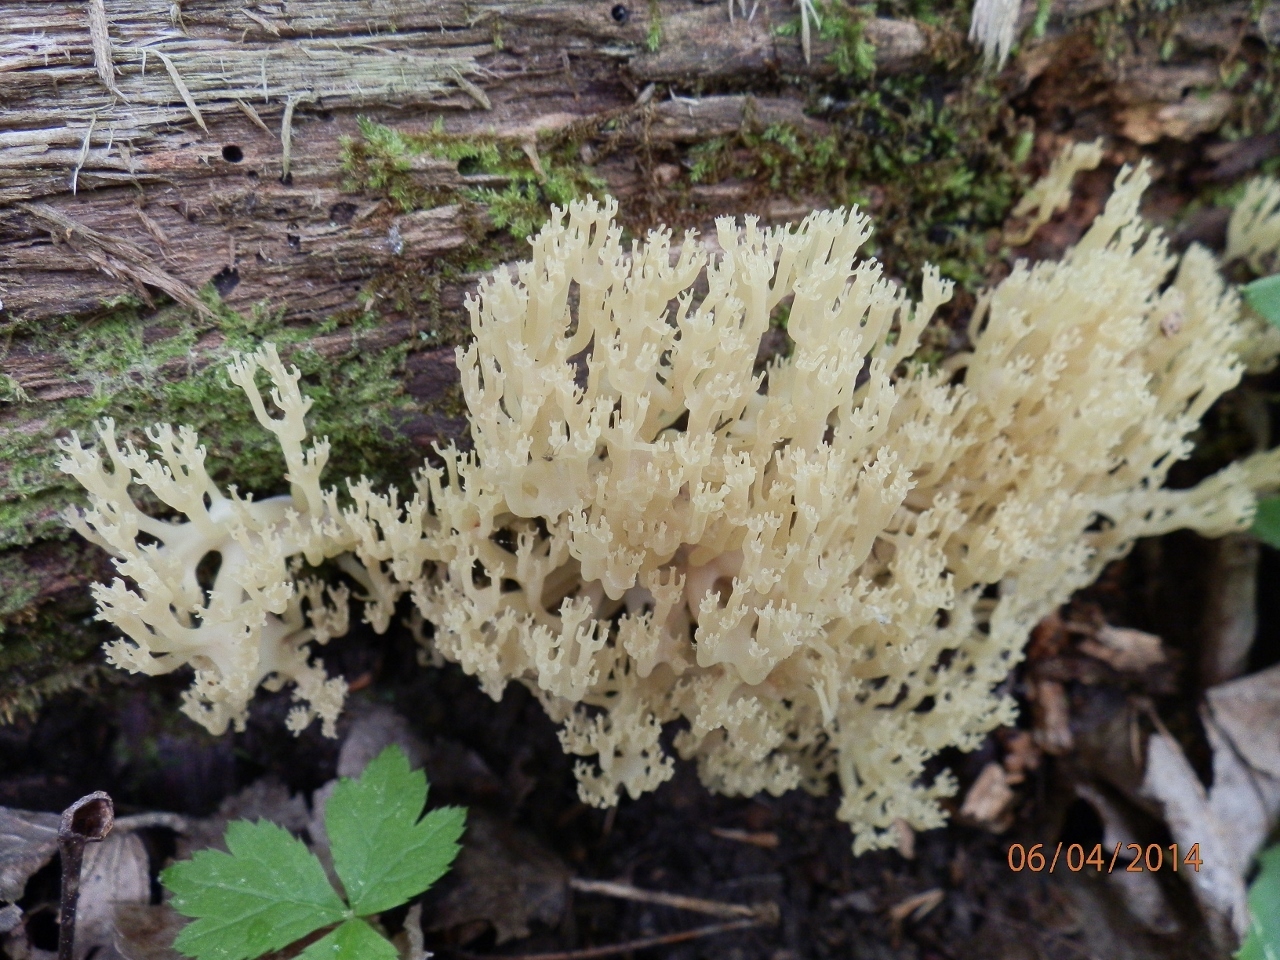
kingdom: Fungi
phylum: Basidiomycota
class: Agaricomycetes
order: Russulales
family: Auriscalpiaceae
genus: Artomyces
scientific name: Artomyces pyxidatus
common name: Crown-tipped coral fungus
